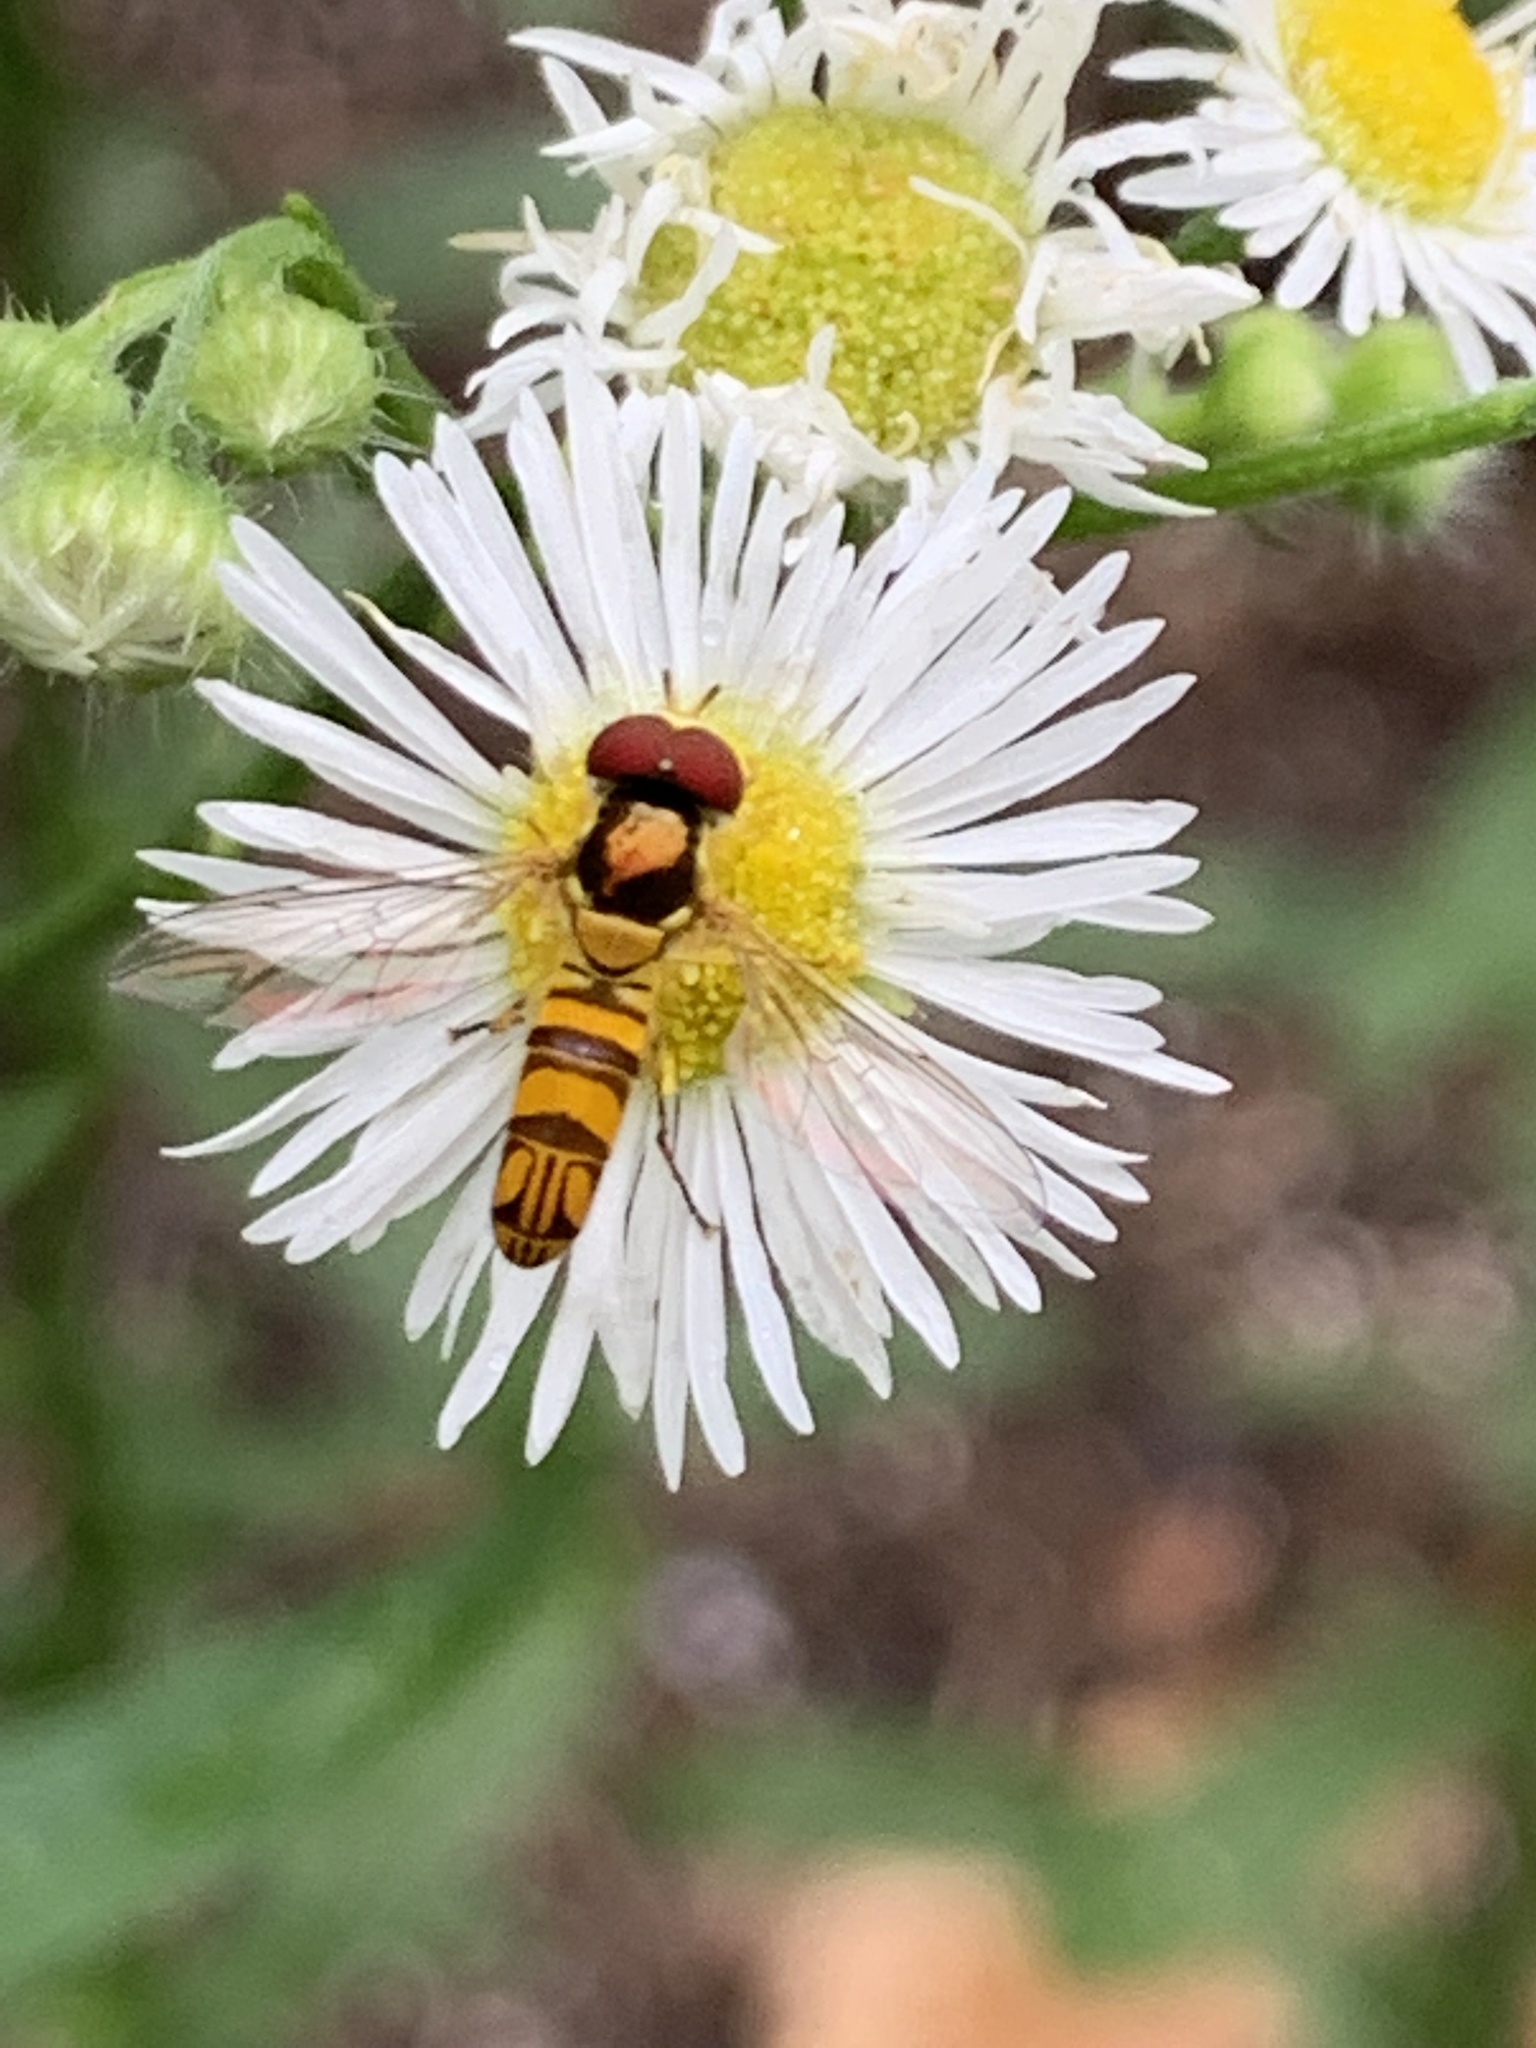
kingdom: Animalia
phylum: Arthropoda
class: Insecta
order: Diptera
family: Syrphidae
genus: Allograpta
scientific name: Allograpta obliqua
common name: Common oblique syrphid
